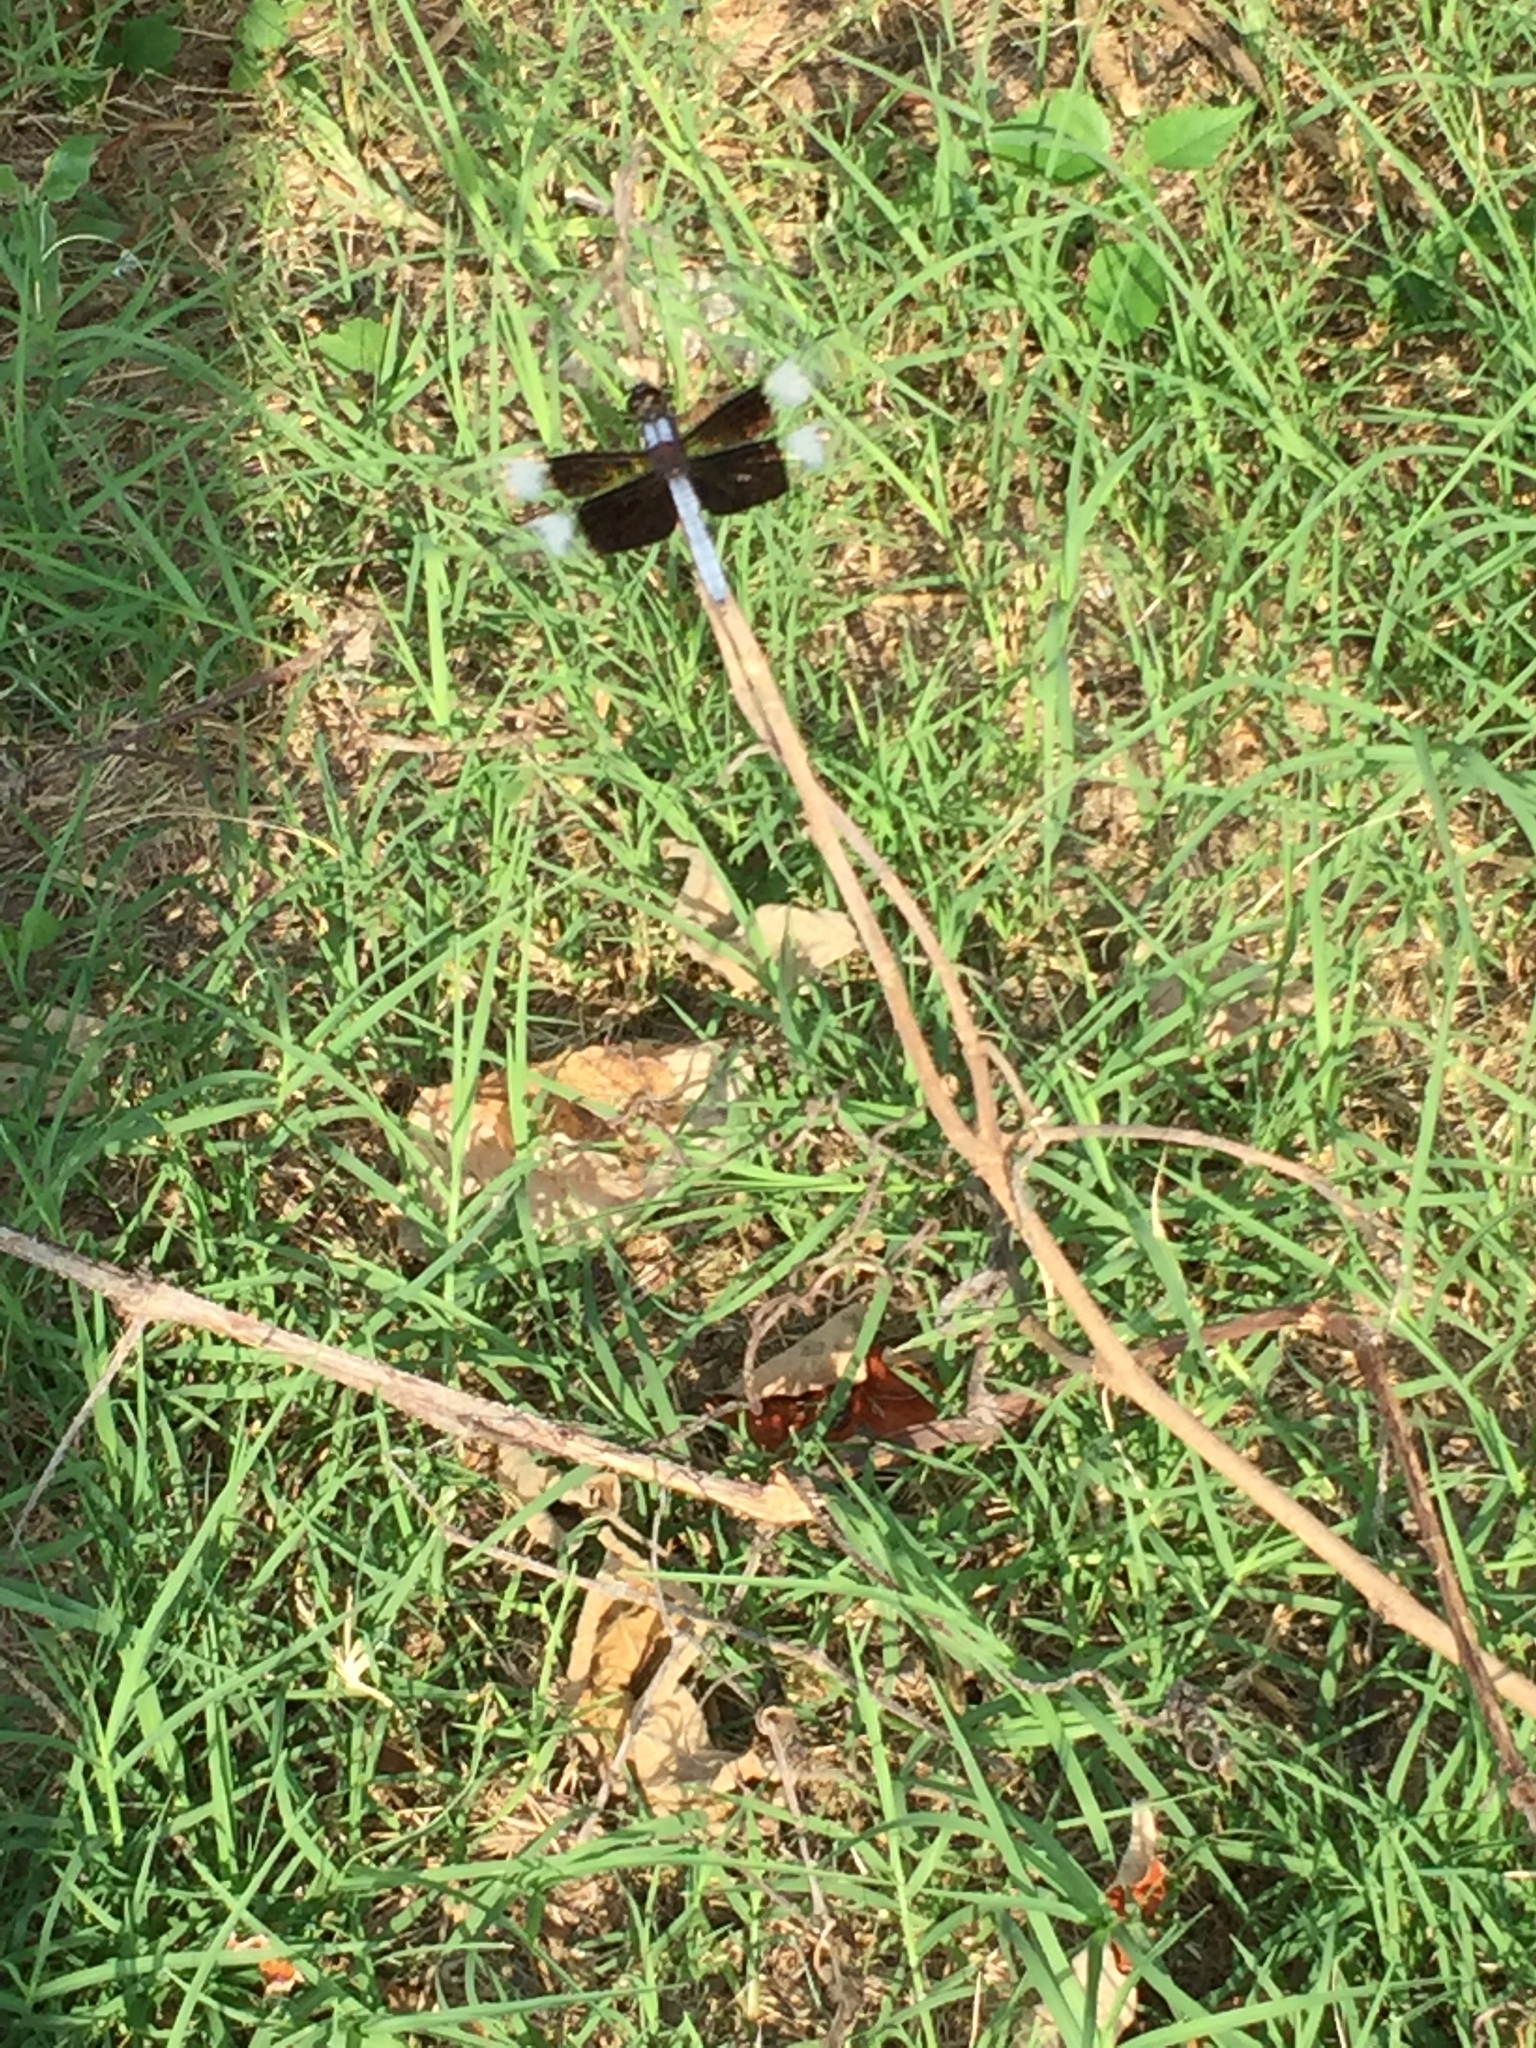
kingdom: Animalia
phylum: Arthropoda
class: Insecta
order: Odonata
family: Libellulidae
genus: Libellula
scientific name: Libellula luctuosa
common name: Widow skimmer
